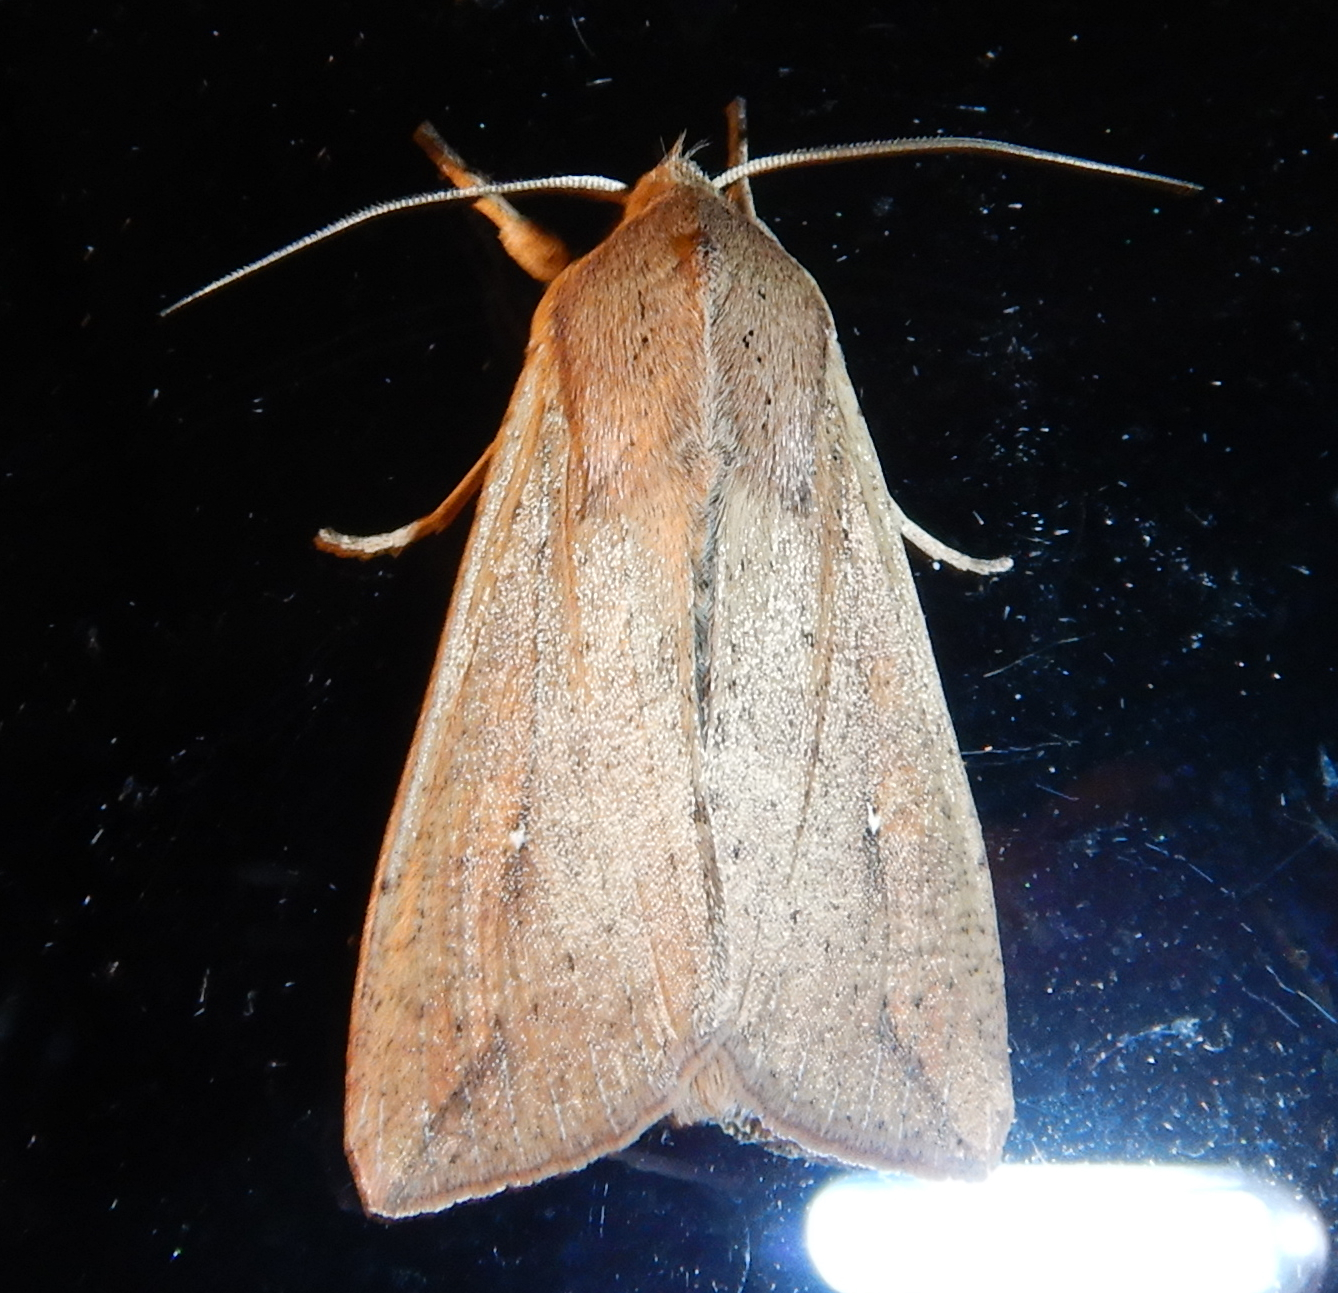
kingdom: Animalia
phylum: Arthropoda
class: Insecta
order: Lepidoptera
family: Noctuidae
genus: Mythimna
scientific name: Mythimna unipuncta
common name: White-speck
